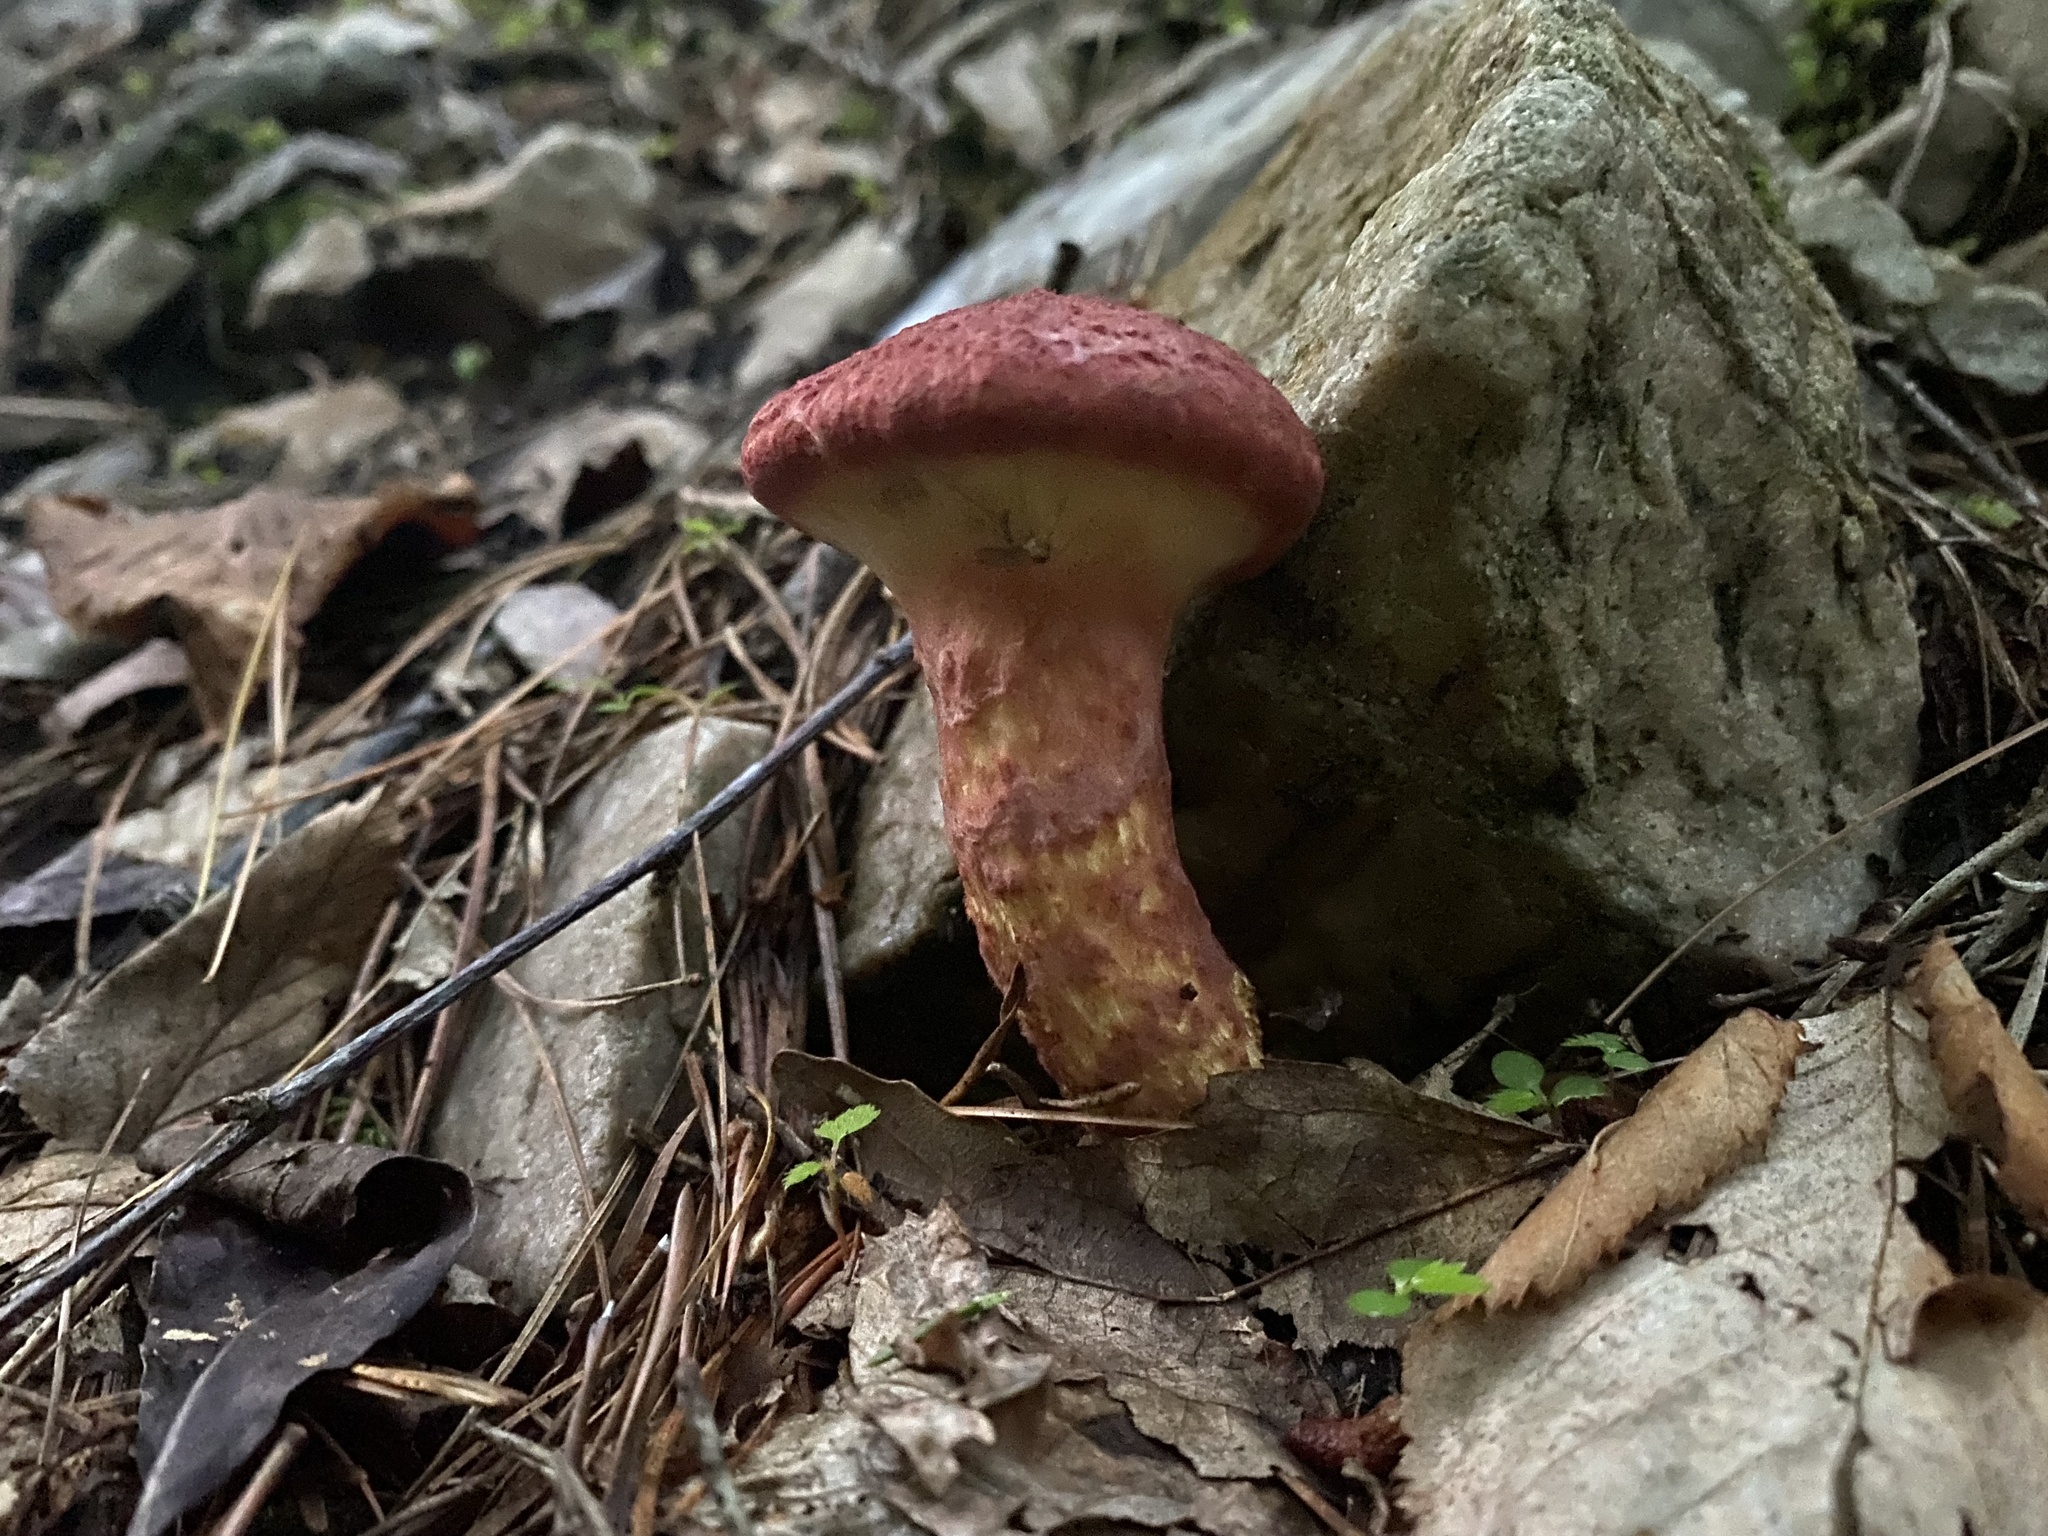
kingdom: Fungi
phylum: Basidiomycota
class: Agaricomycetes
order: Boletales
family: Suillaceae
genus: Suillus
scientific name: Suillus spraguei
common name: Painted suillus
